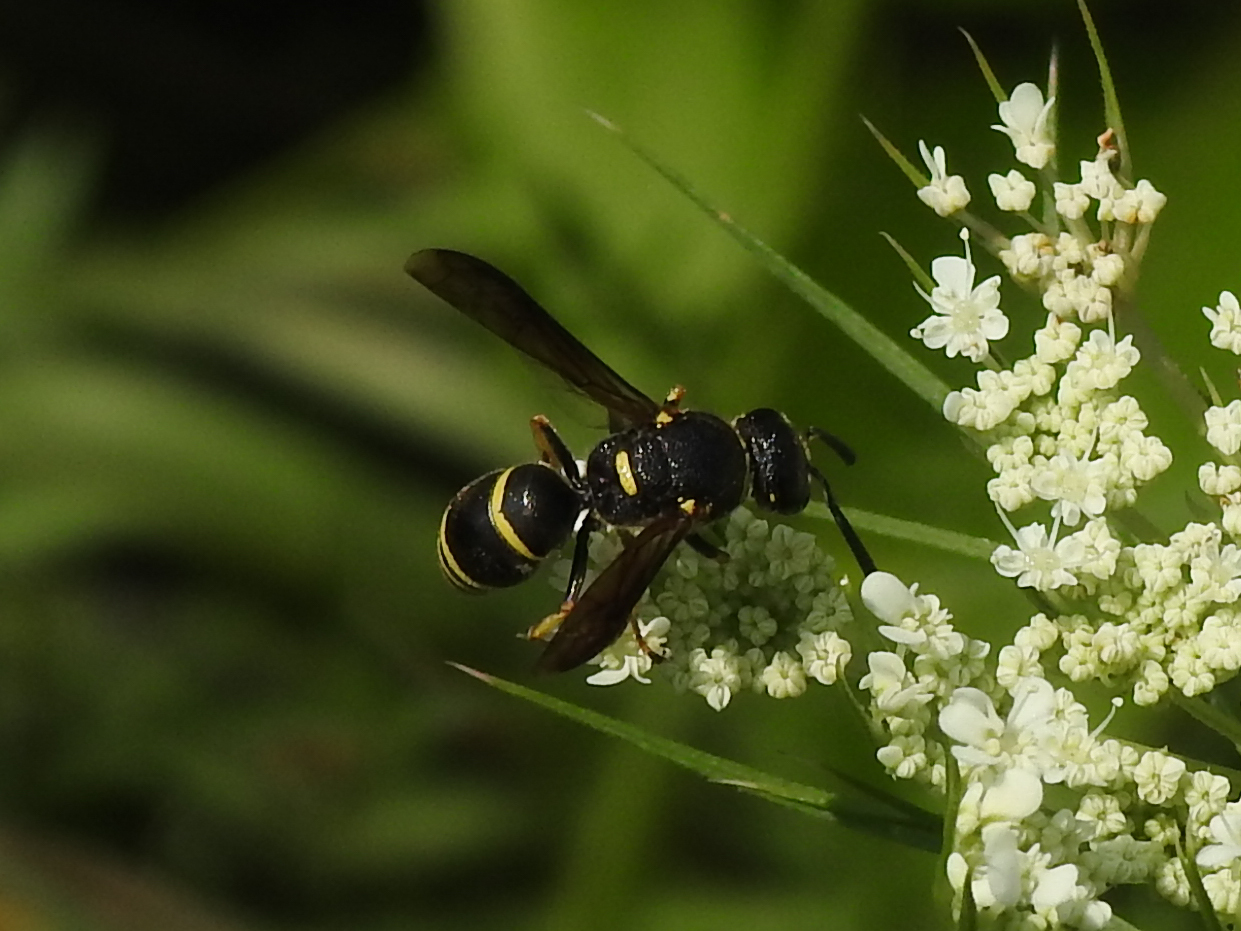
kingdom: Animalia
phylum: Arthropoda
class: Insecta
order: Hymenoptera
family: Eumenidae
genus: Euodynerus
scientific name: Euodynerus foraminatus
